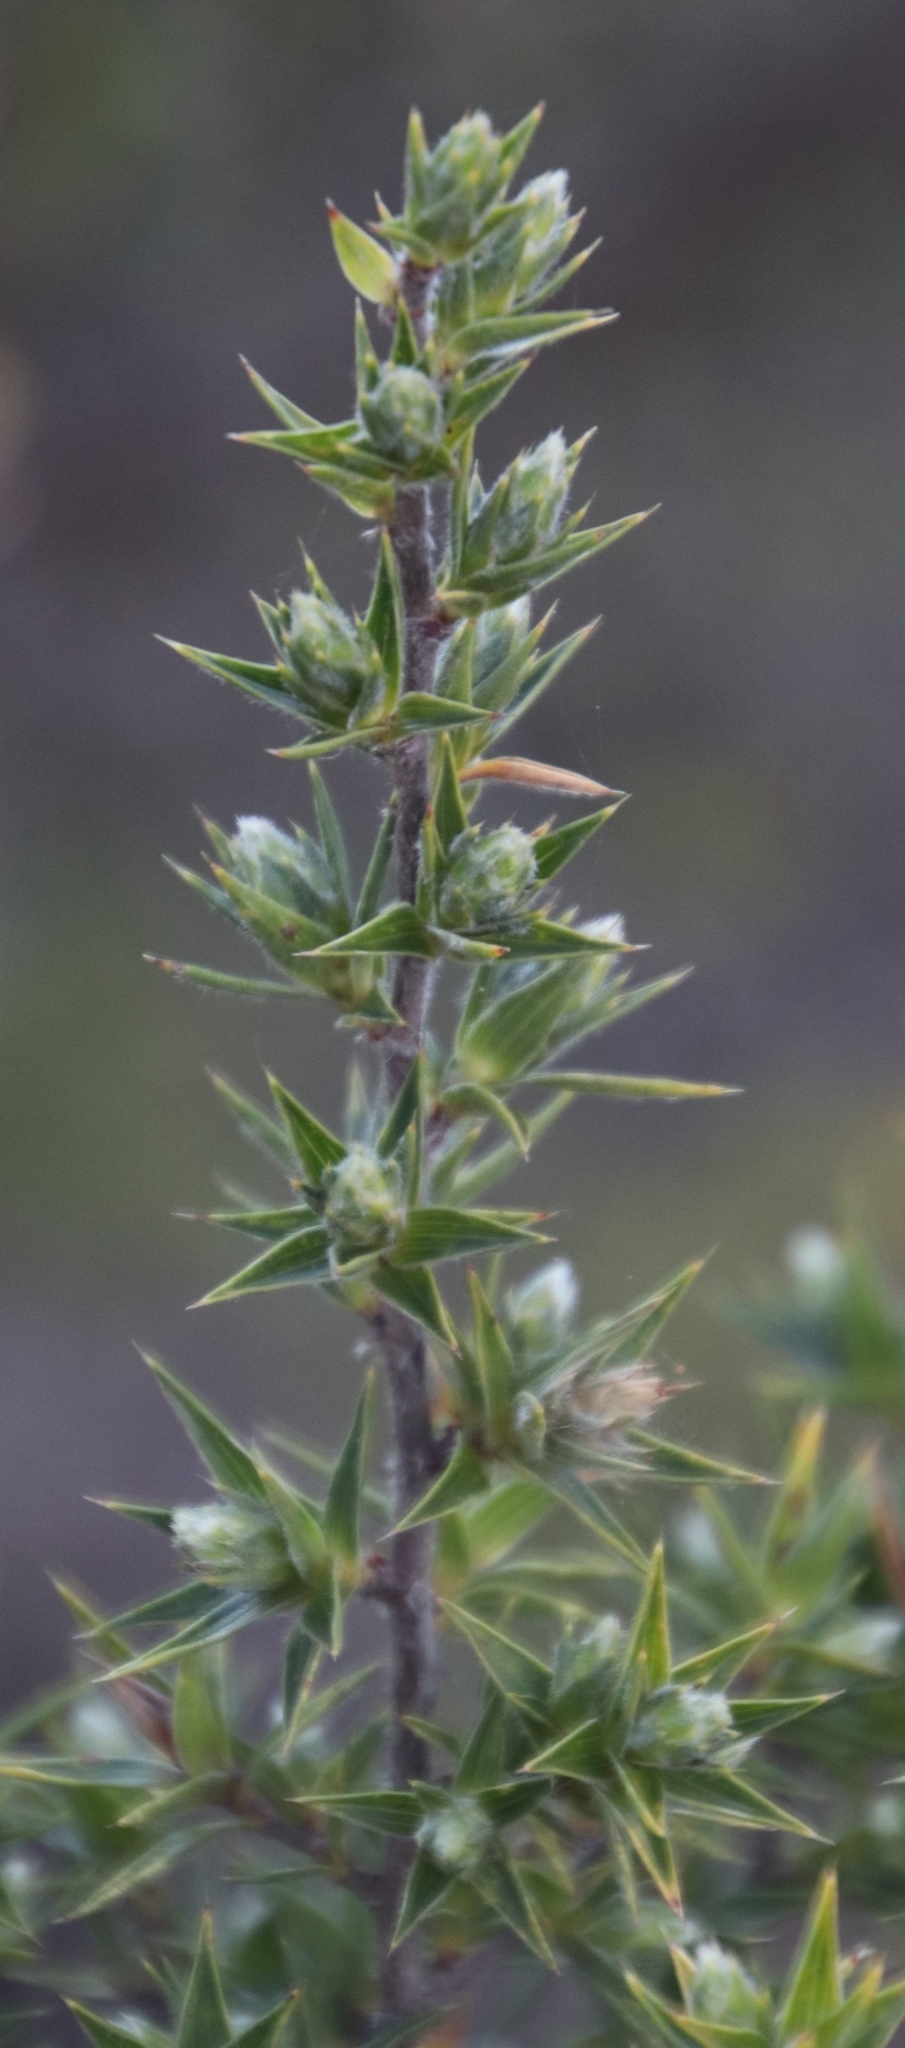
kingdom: Plantae
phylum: Tracheophyta
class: Magnoliopsida
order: Rosales
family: Rosaceae
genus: Cliffortia
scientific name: Cliffortia ruscifolia
